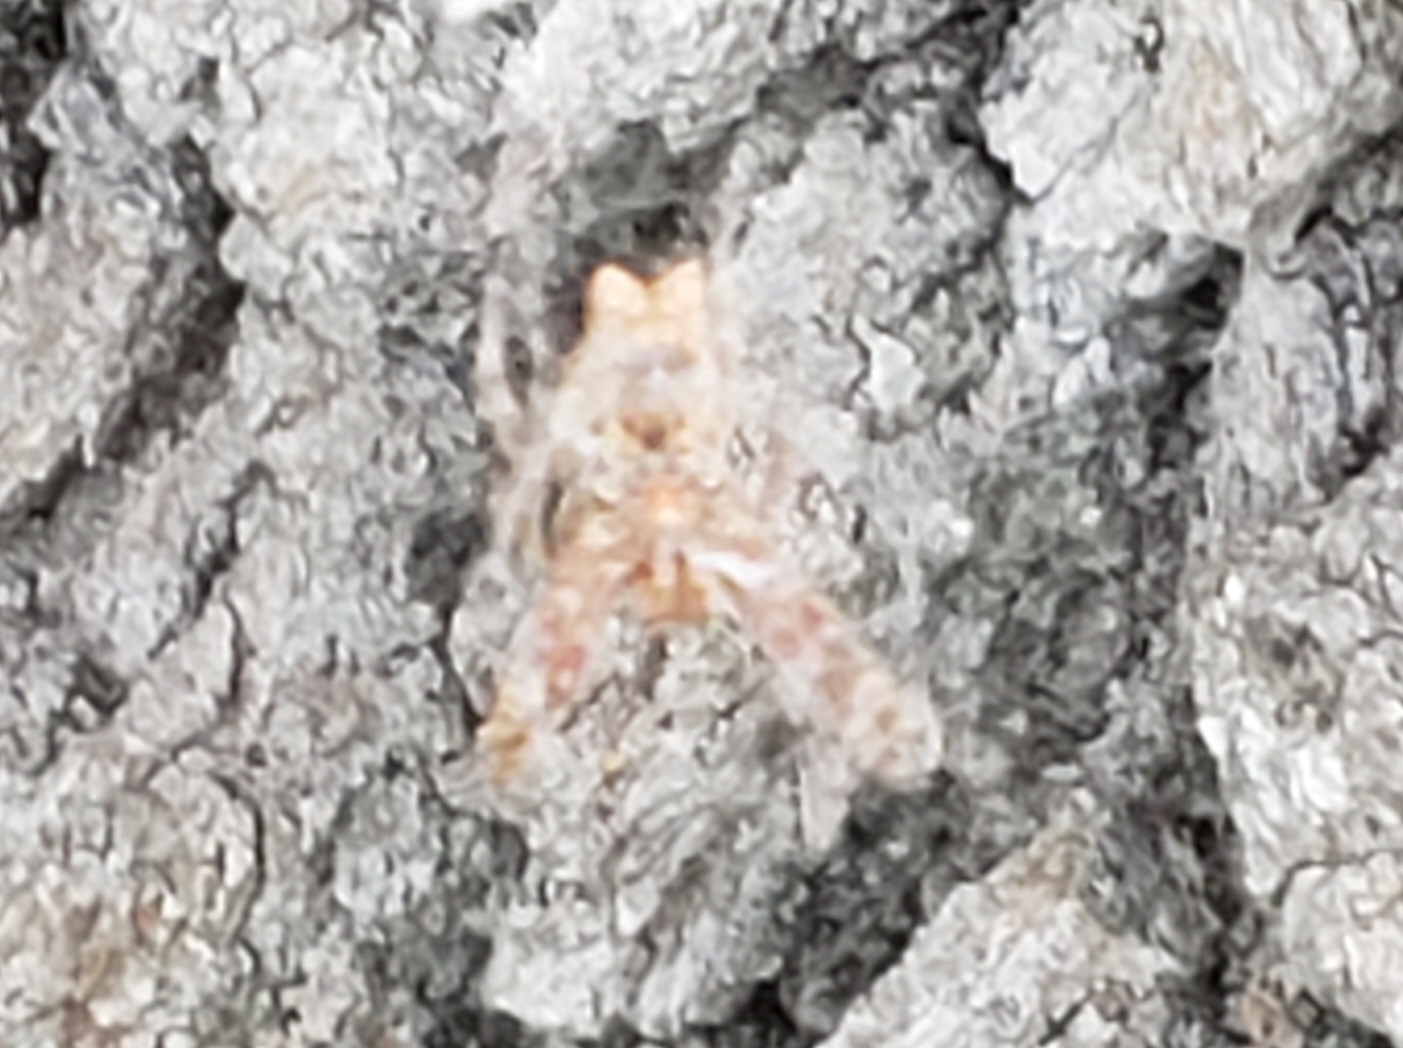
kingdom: Animalia
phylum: Arthropoda
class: Arachnida
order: Araneae
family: Araneidae
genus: Cyrtophora
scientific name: Cyrtophora citricola
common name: Orb weavers
